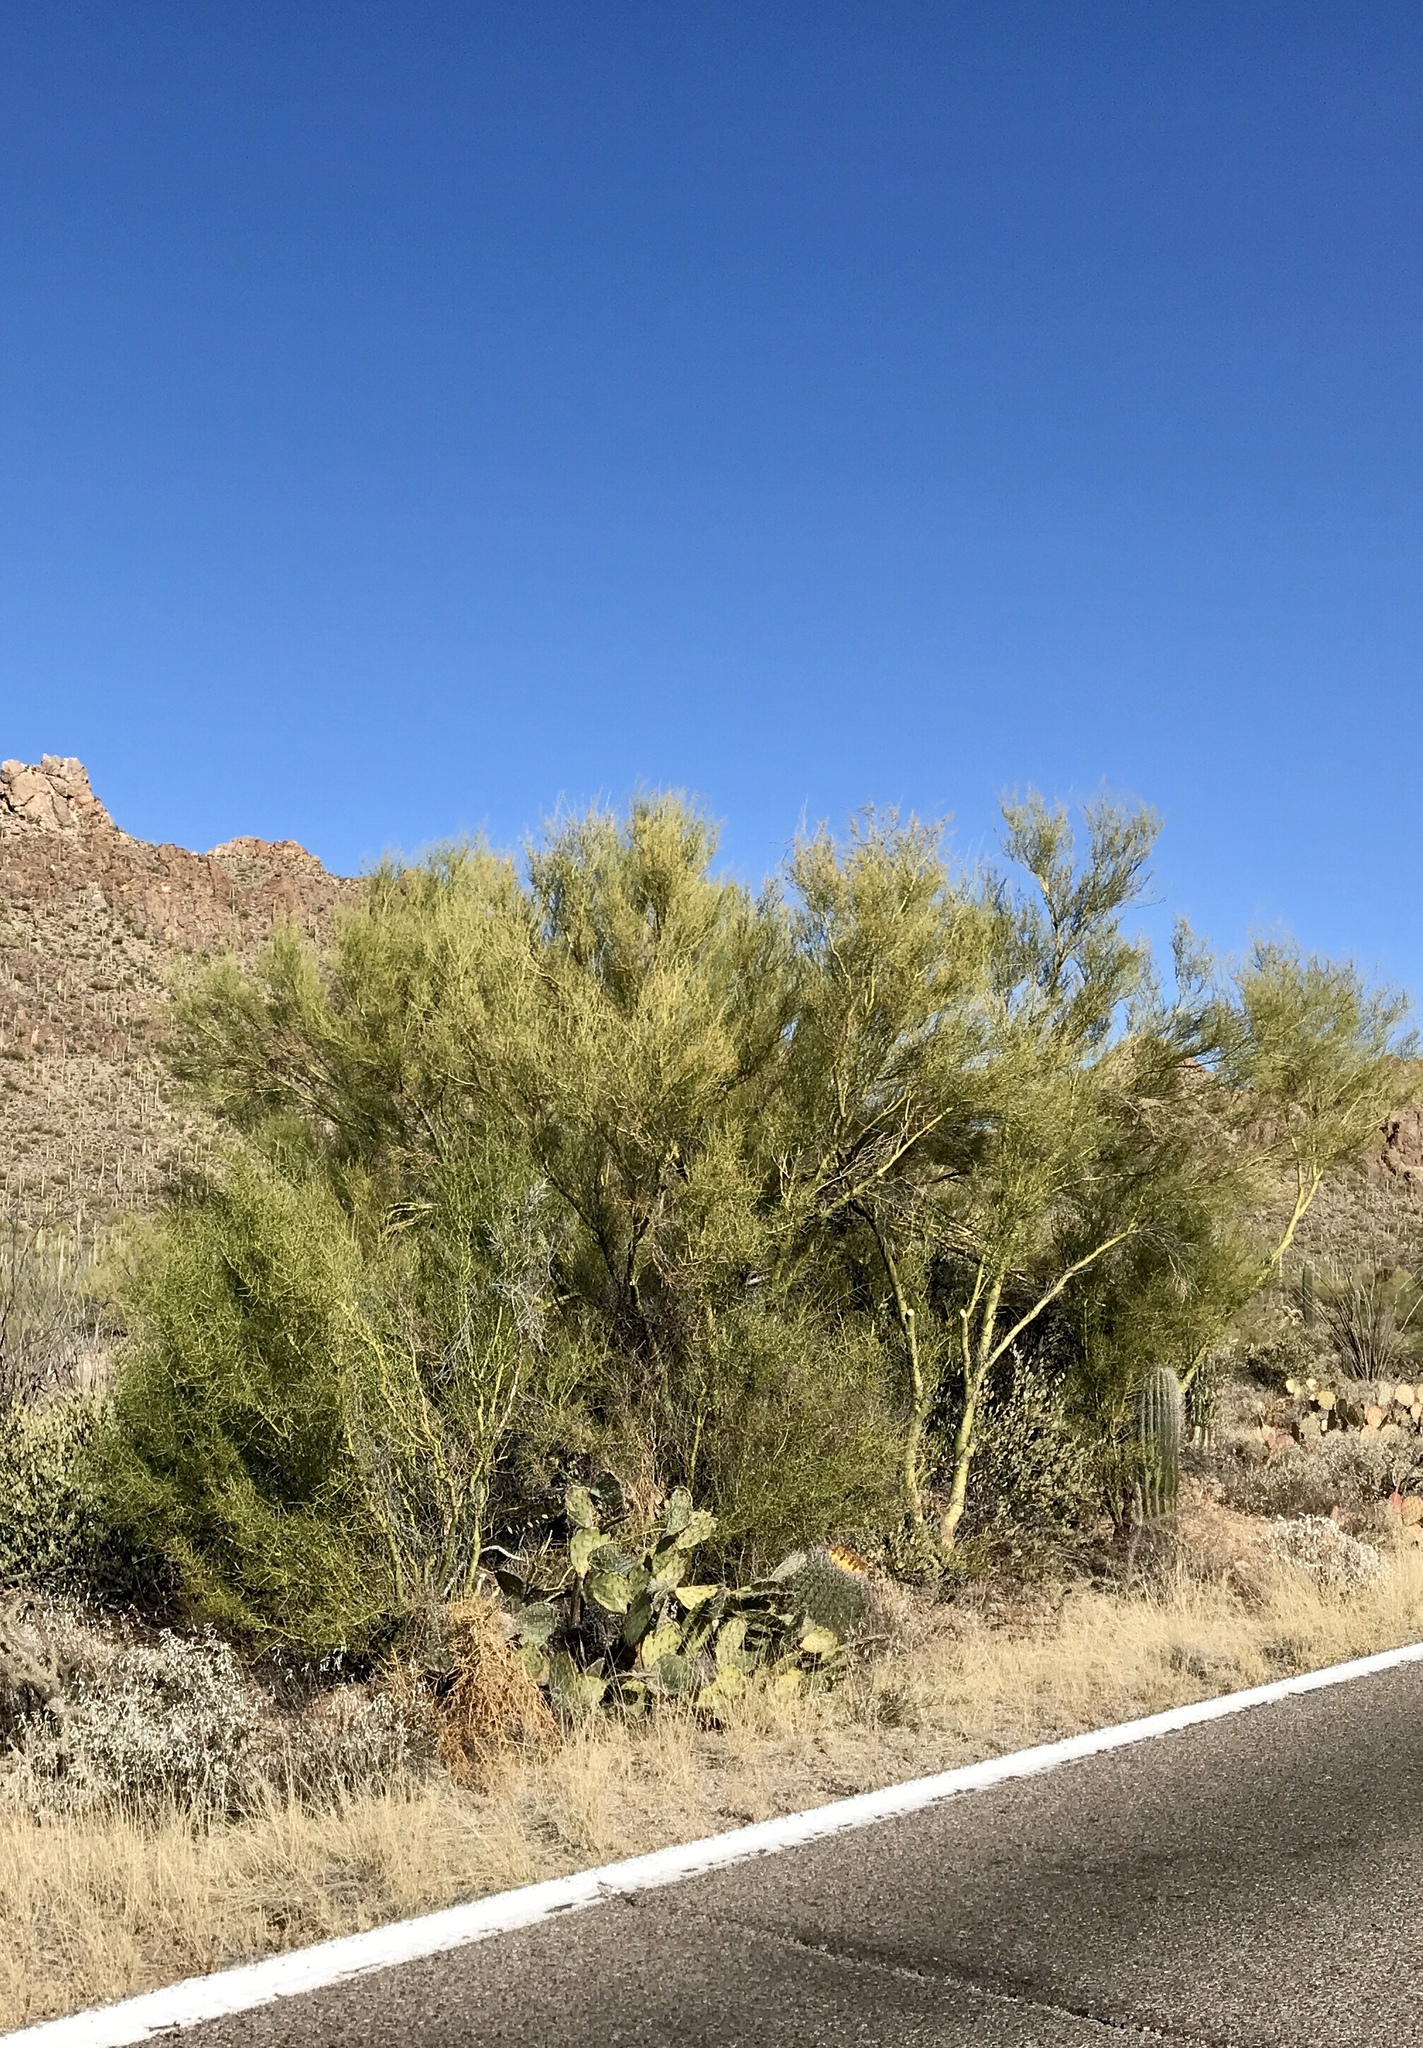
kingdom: Plantae
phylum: Tracheophyta
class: Magnoliopsida
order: Fabales
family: Fabaceae
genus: Parkinsonia
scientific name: Parkinsonia microphylla
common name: Yellow paloverde
